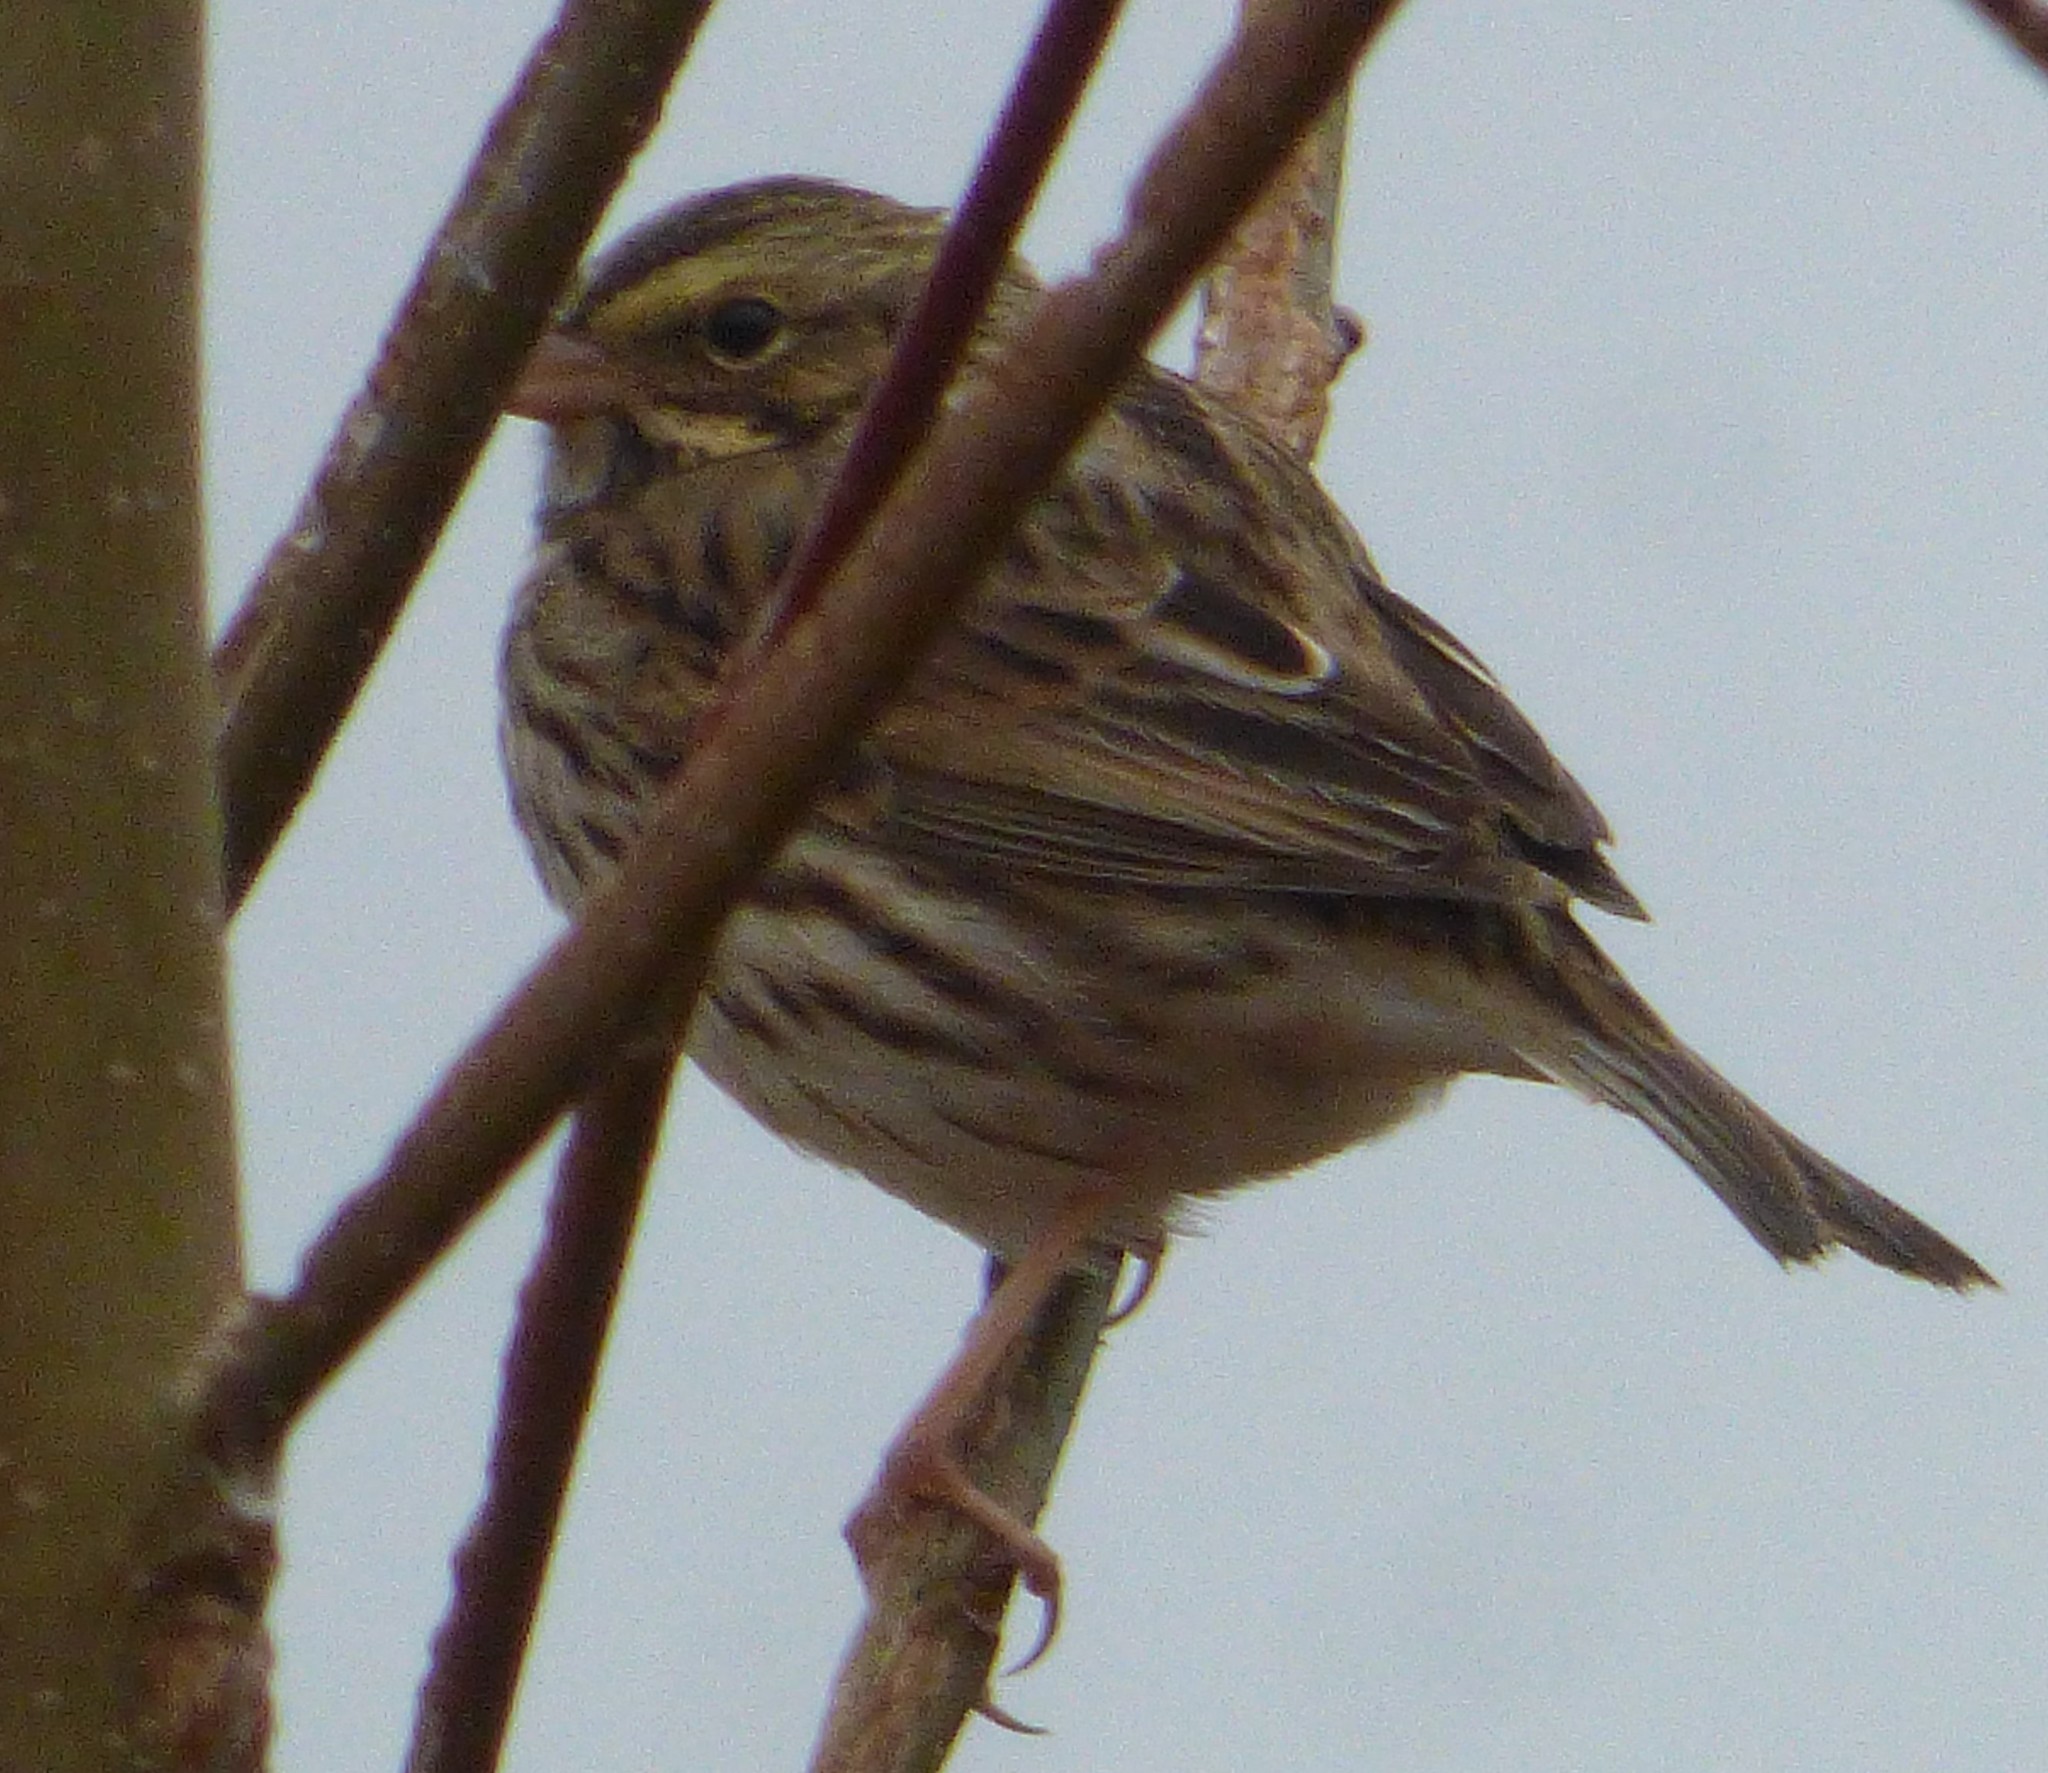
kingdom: Animalia
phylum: Chordata
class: Aves
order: Passeriformes
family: Passerellidae
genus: Passerculus
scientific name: Passerculus sandwichensis
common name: Savannah sparrow
